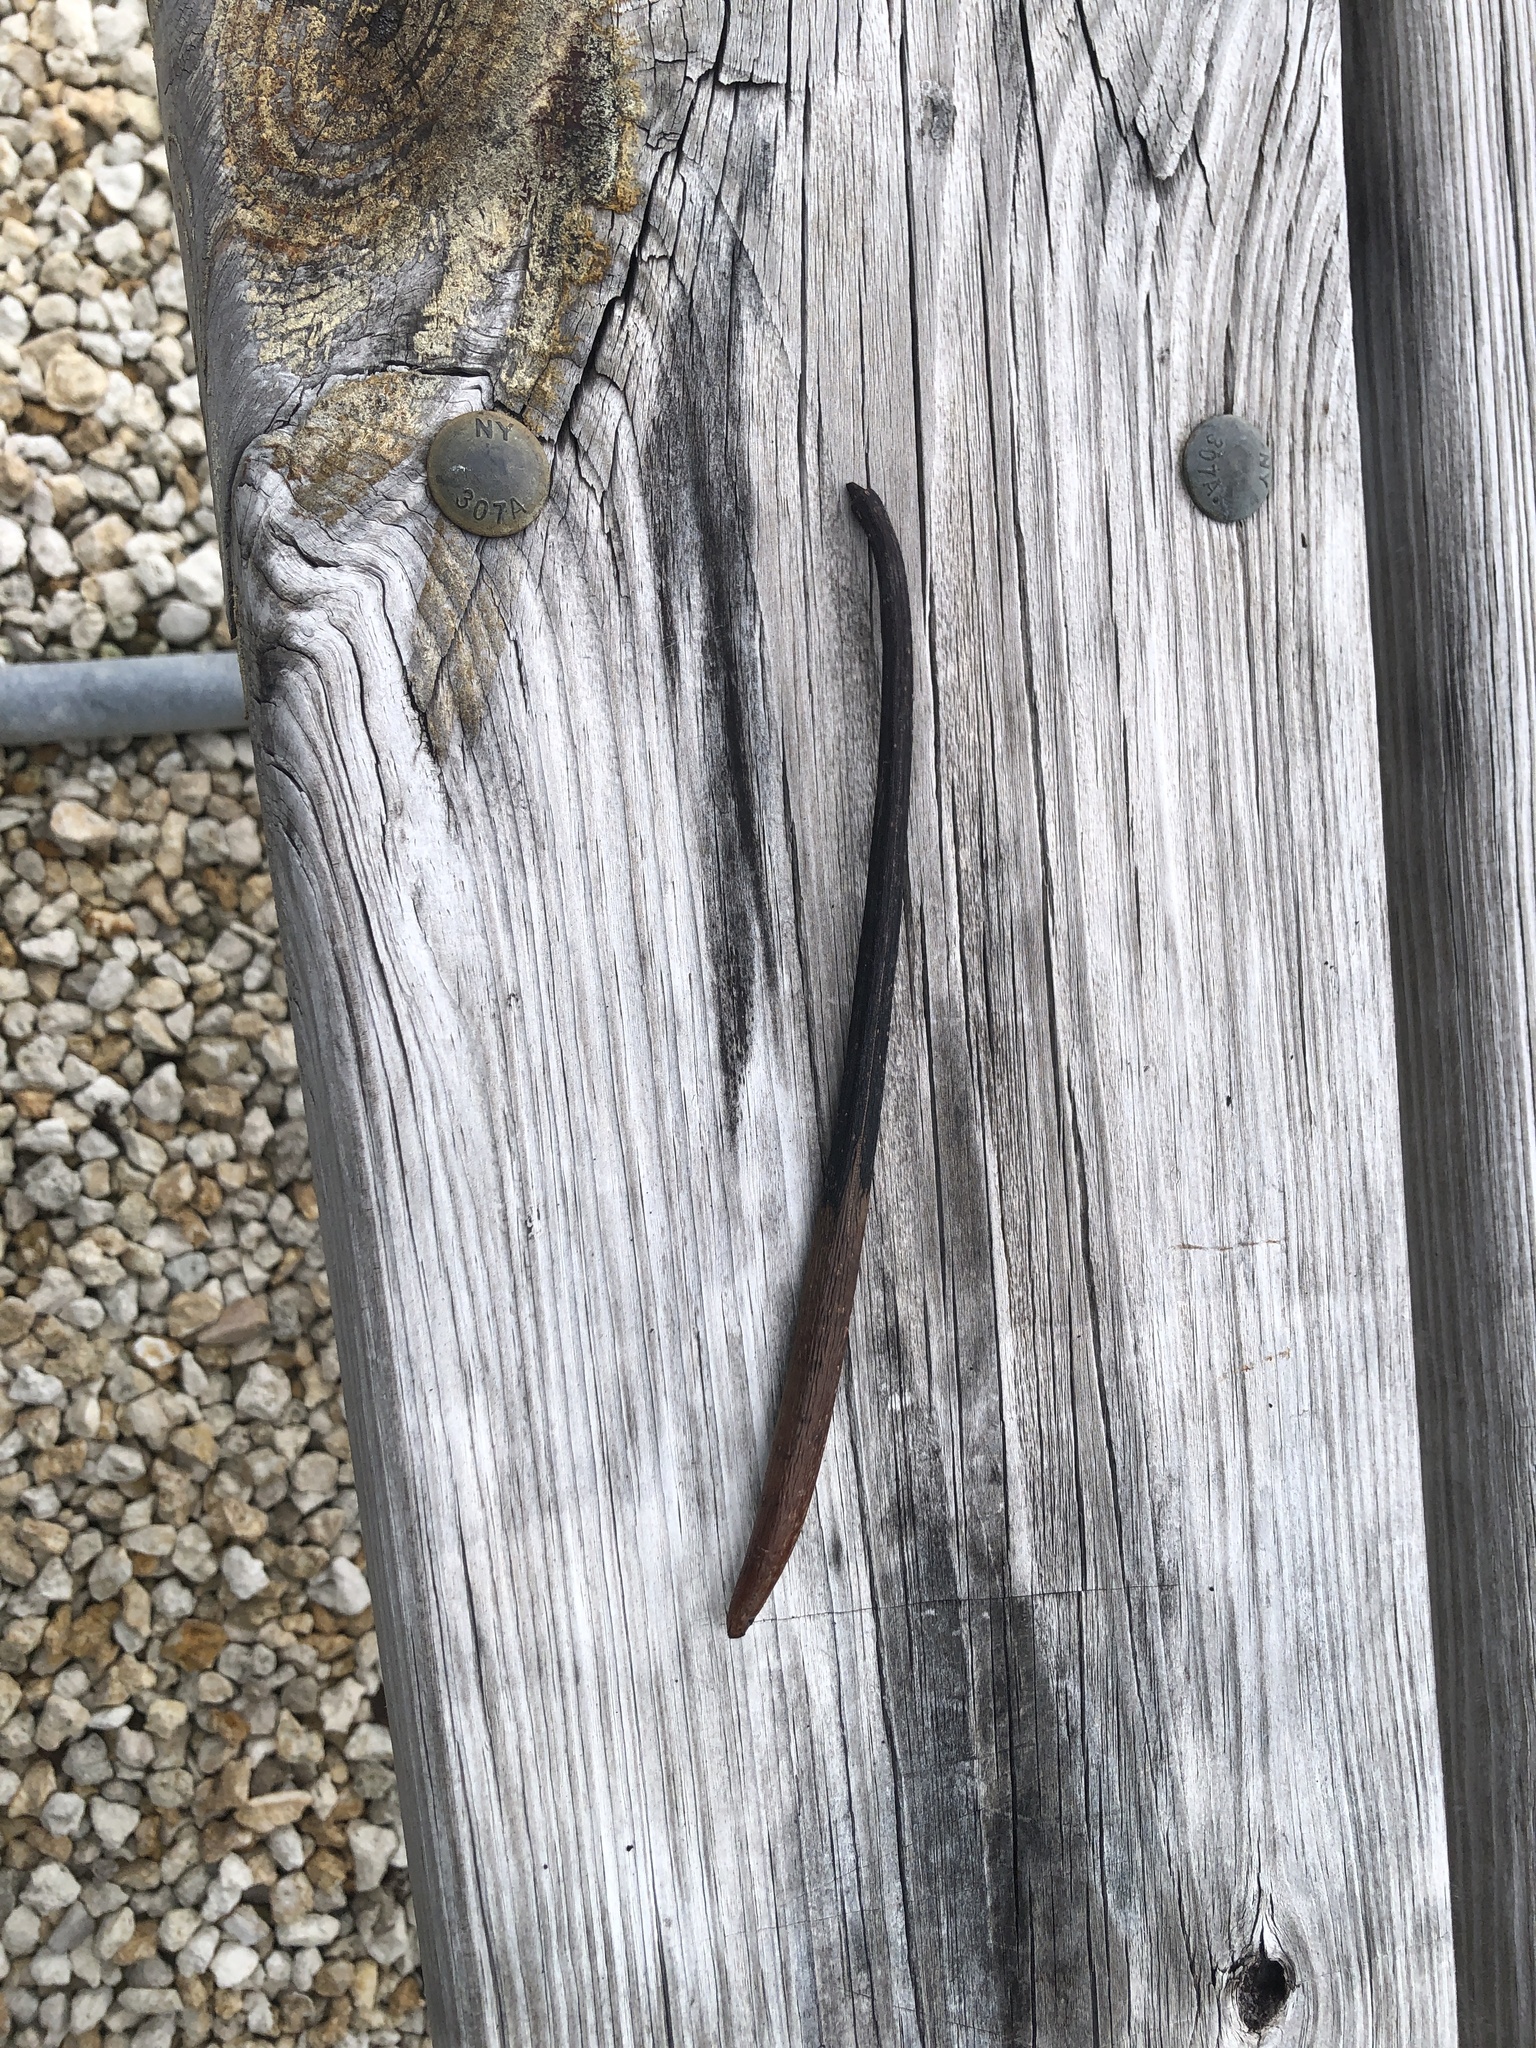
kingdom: Plantae
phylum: Tracheophyta
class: Magnoliopsida
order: Malpighiales
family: Rhizophoraceae
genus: Rhizophora
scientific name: Rhizophora mangle
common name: Red mangrove
